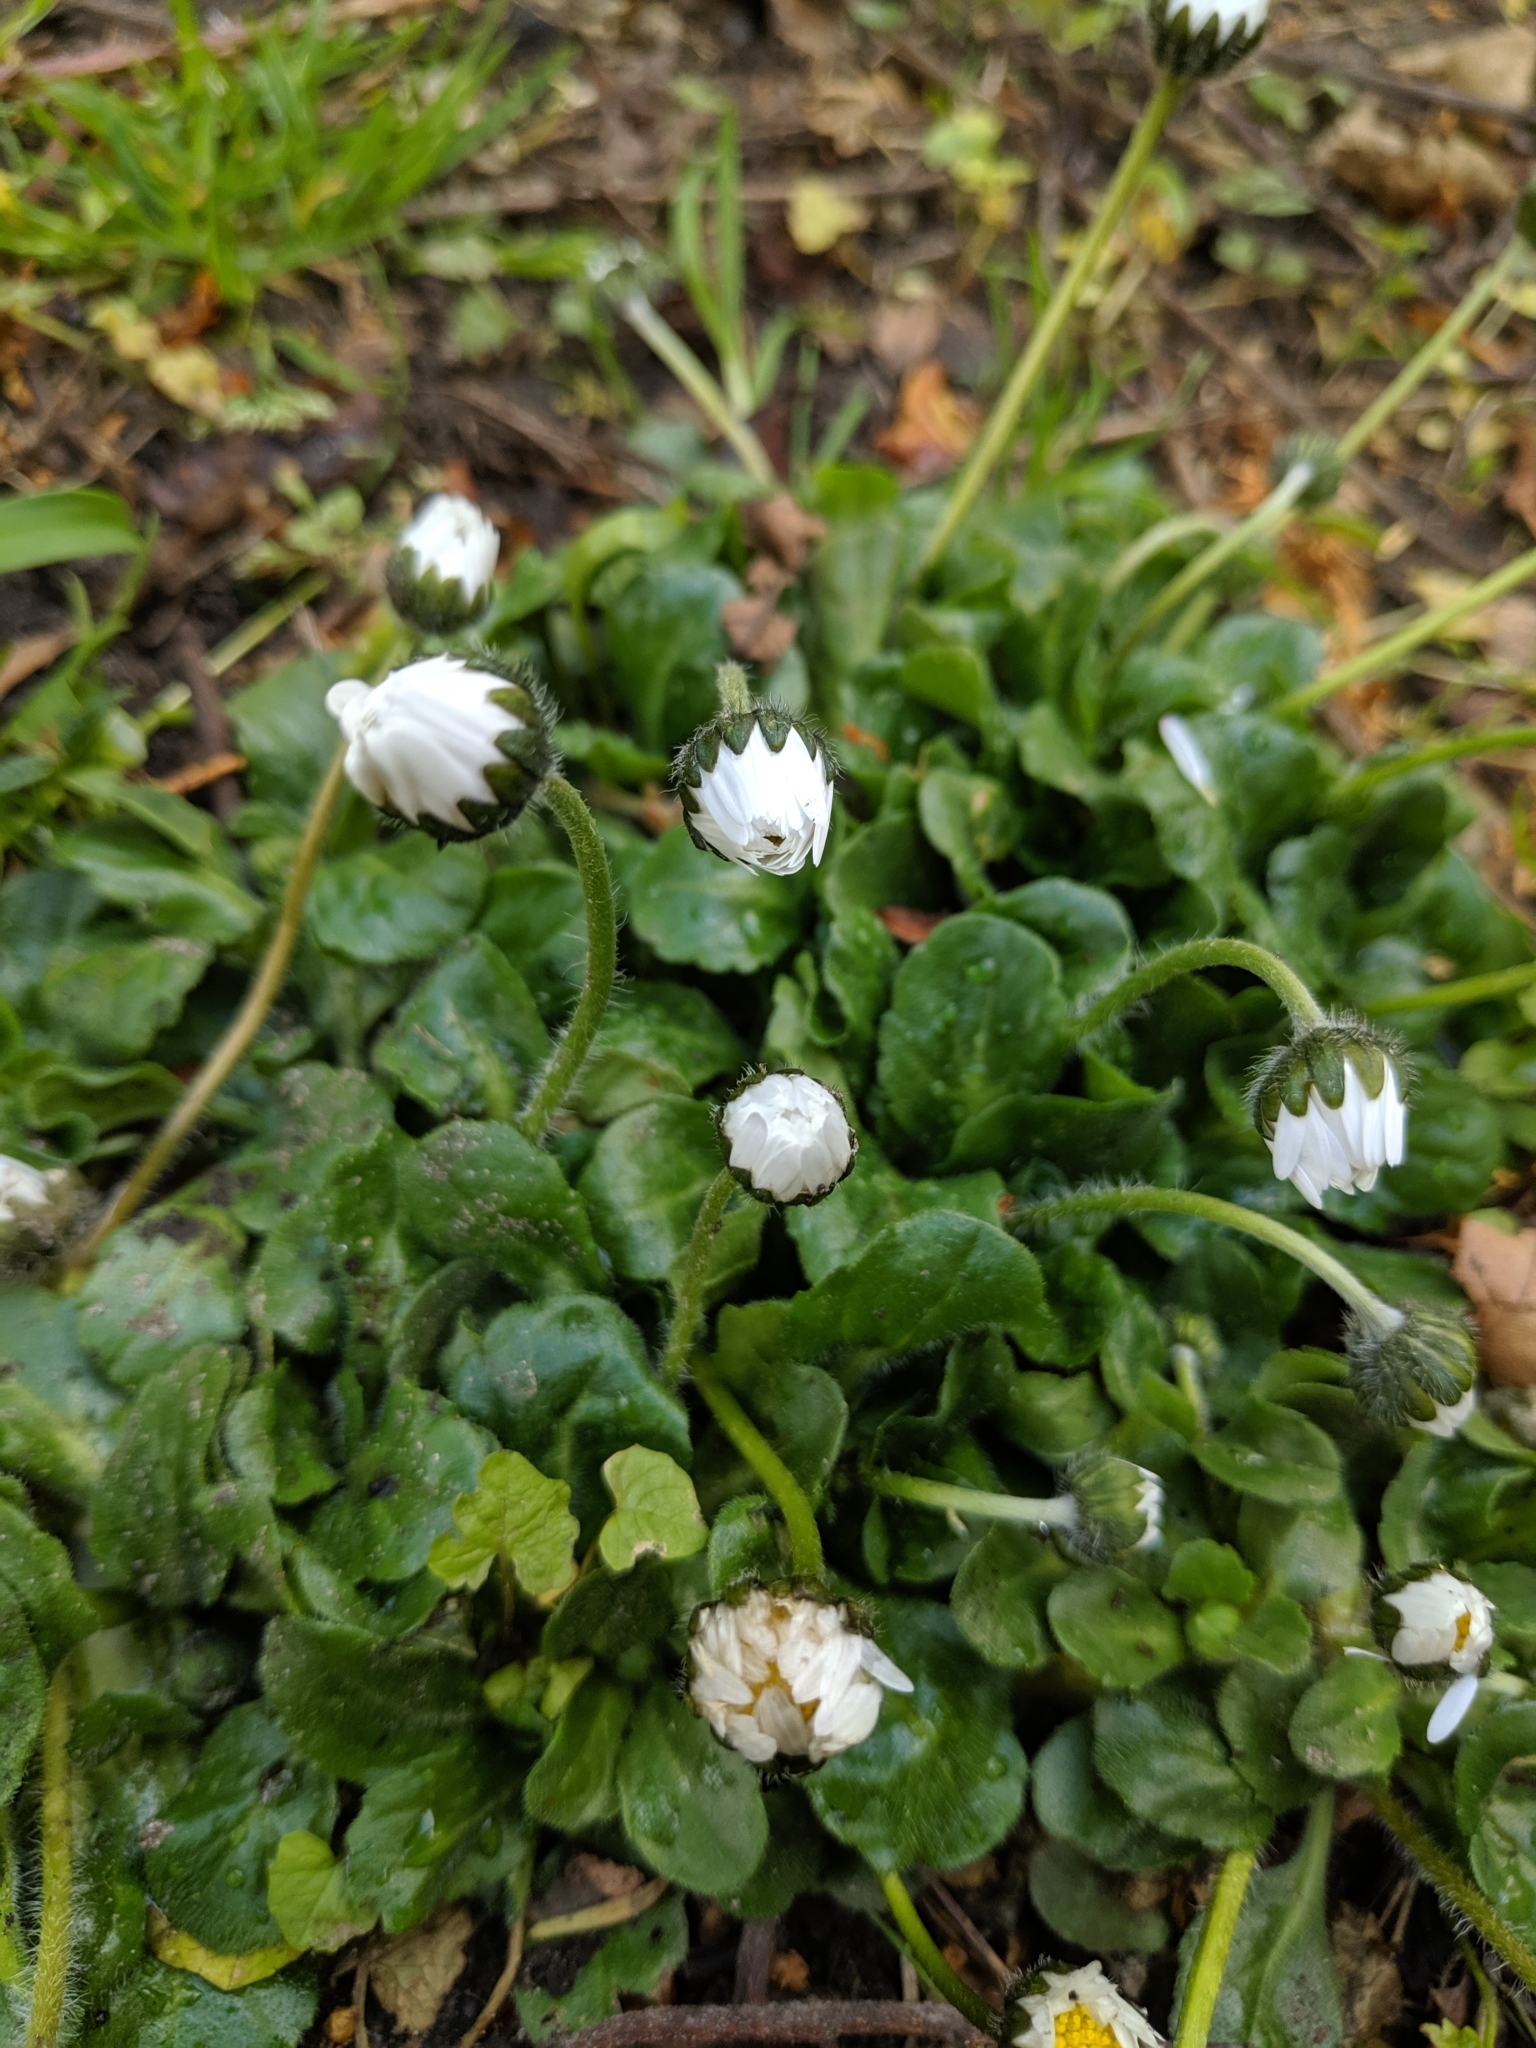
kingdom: Plantae
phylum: Tracheophyta
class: Magnoliopsida
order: Asterales
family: Asteraceae
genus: Bellis
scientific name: Bellis perennis
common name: Lawndaisy
